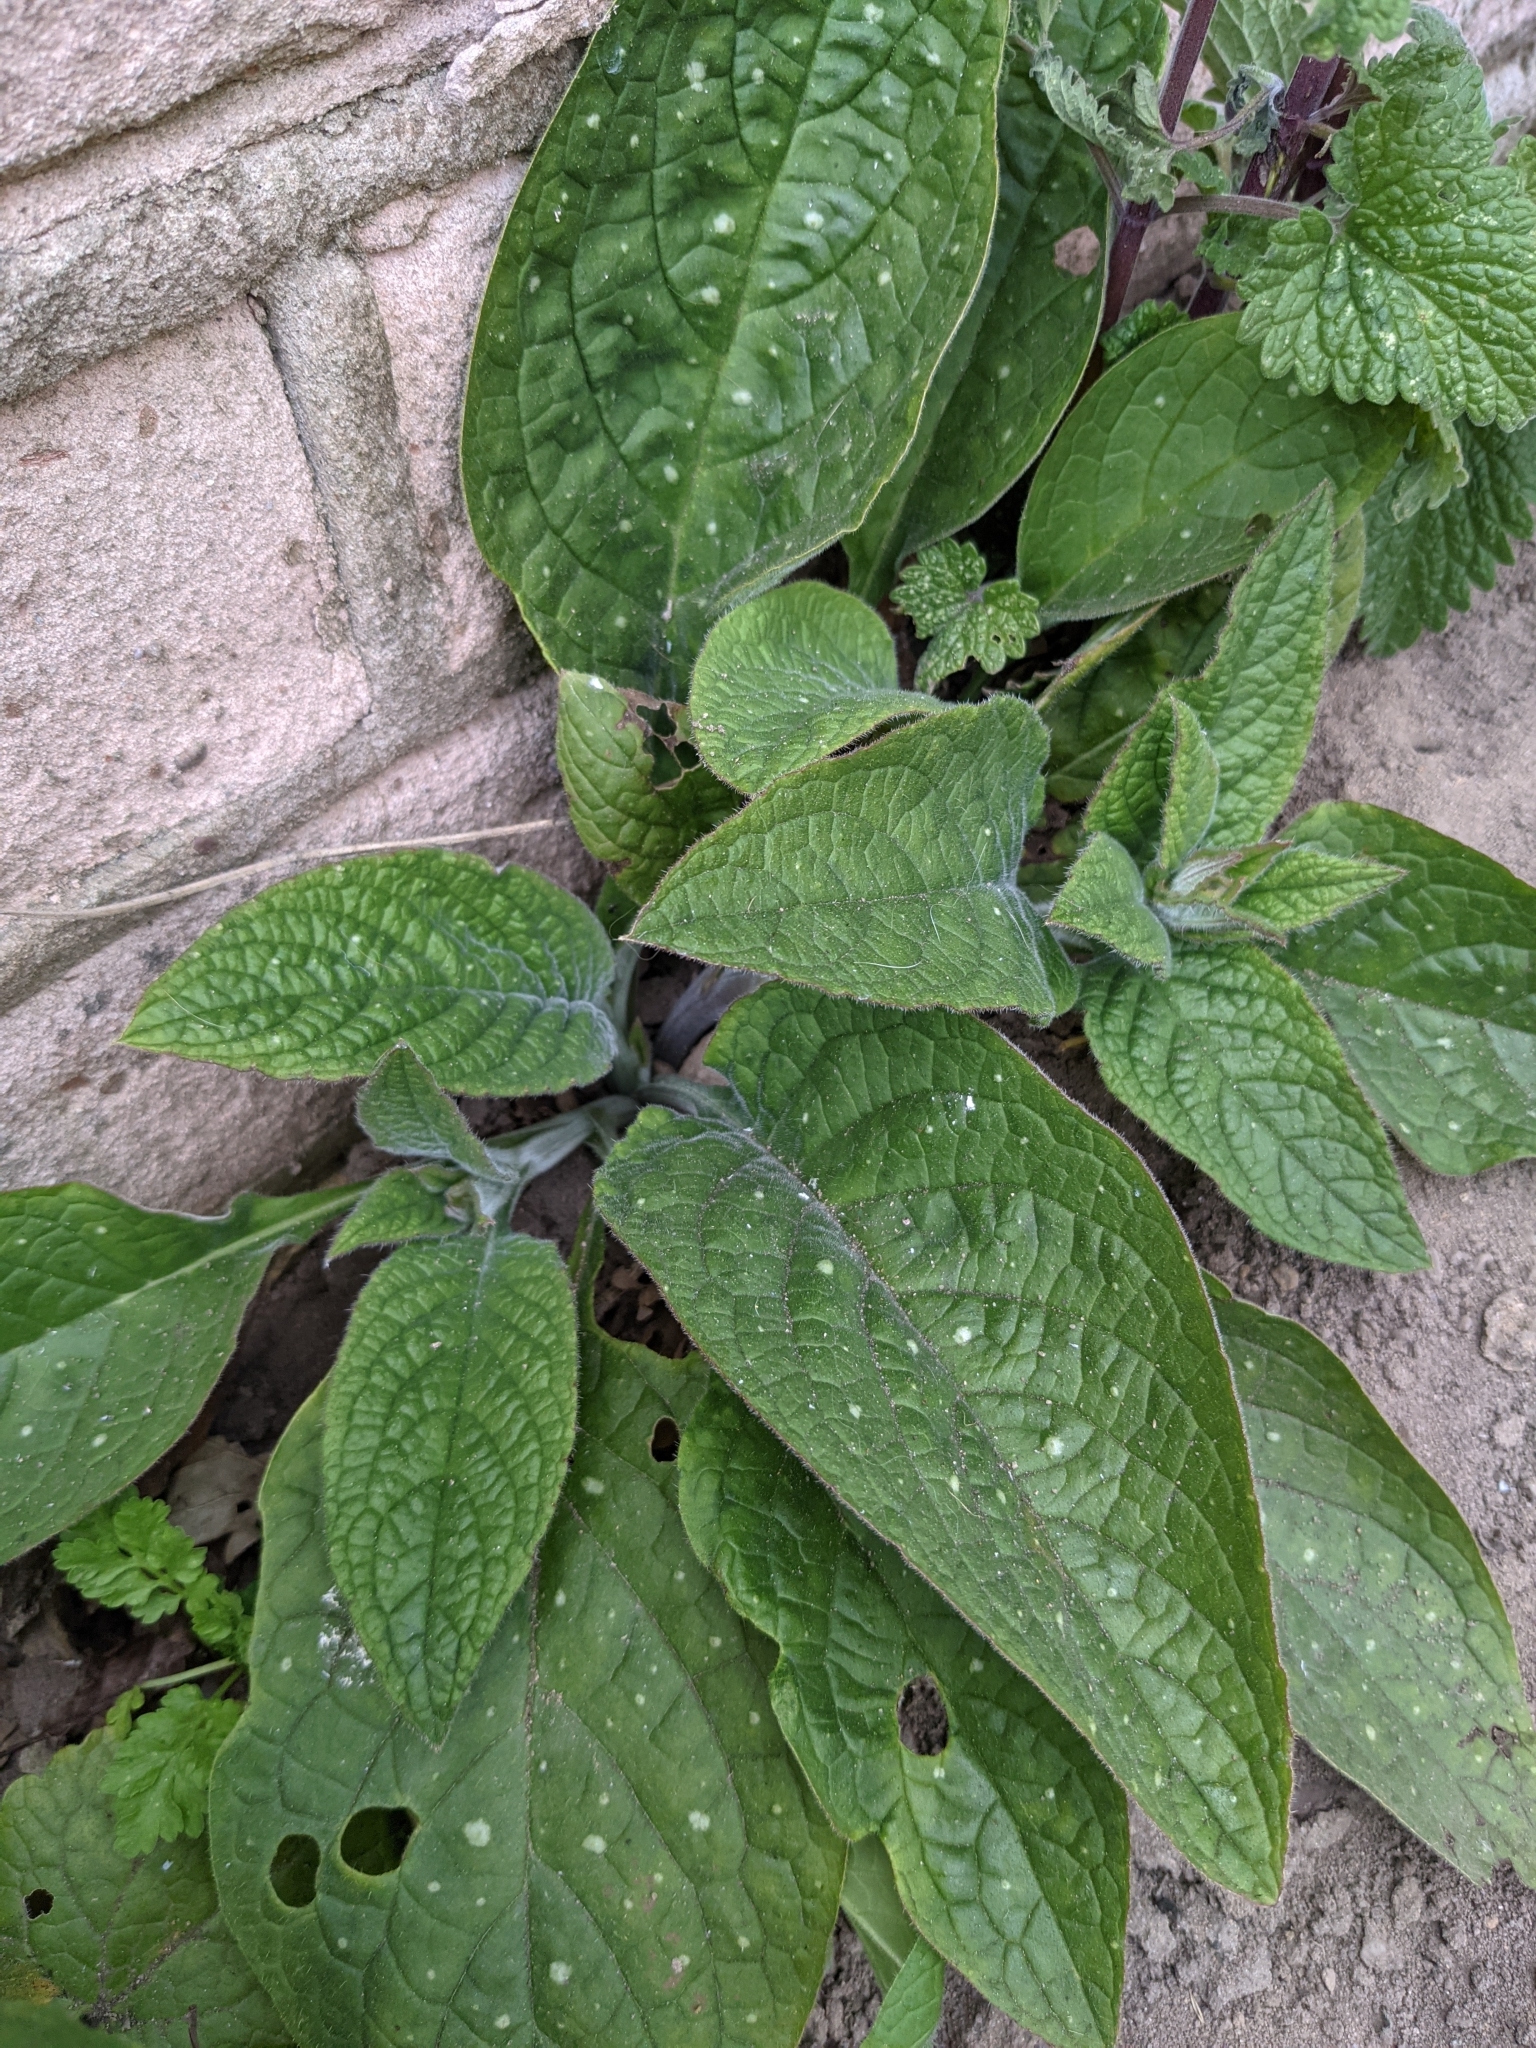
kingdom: Plantae
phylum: Tracheophyta
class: Magnoliopsida
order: Boraginales
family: Boraginaceae
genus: Pentaglottis
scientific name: Pentaglottis sempervirens
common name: Green alkanet
